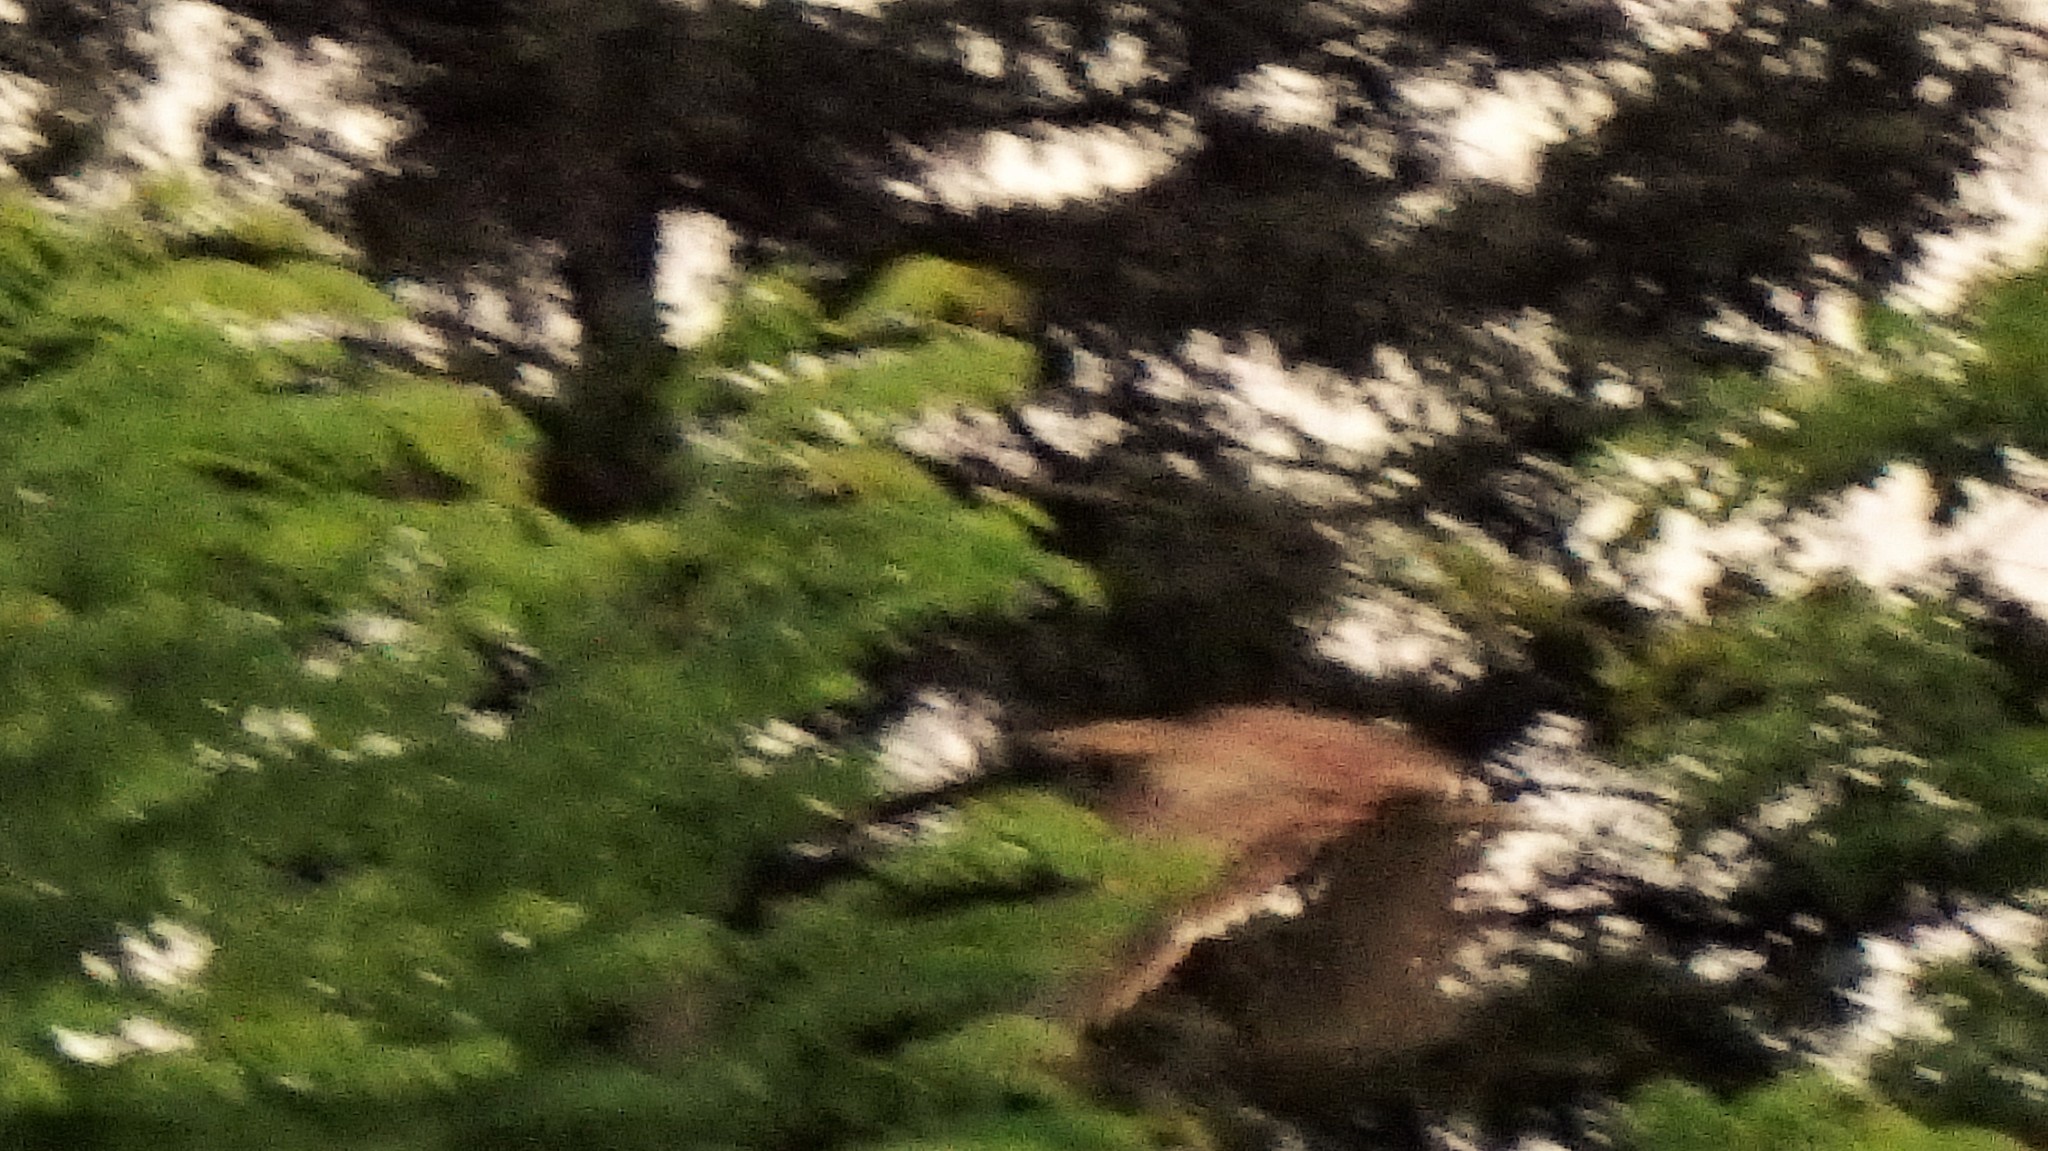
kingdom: Animalia
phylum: Chordata
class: Aves
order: Pelecaniformes
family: Ardeidae
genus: Botaurus
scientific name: Botaurus lentiginosus
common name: American bittern
